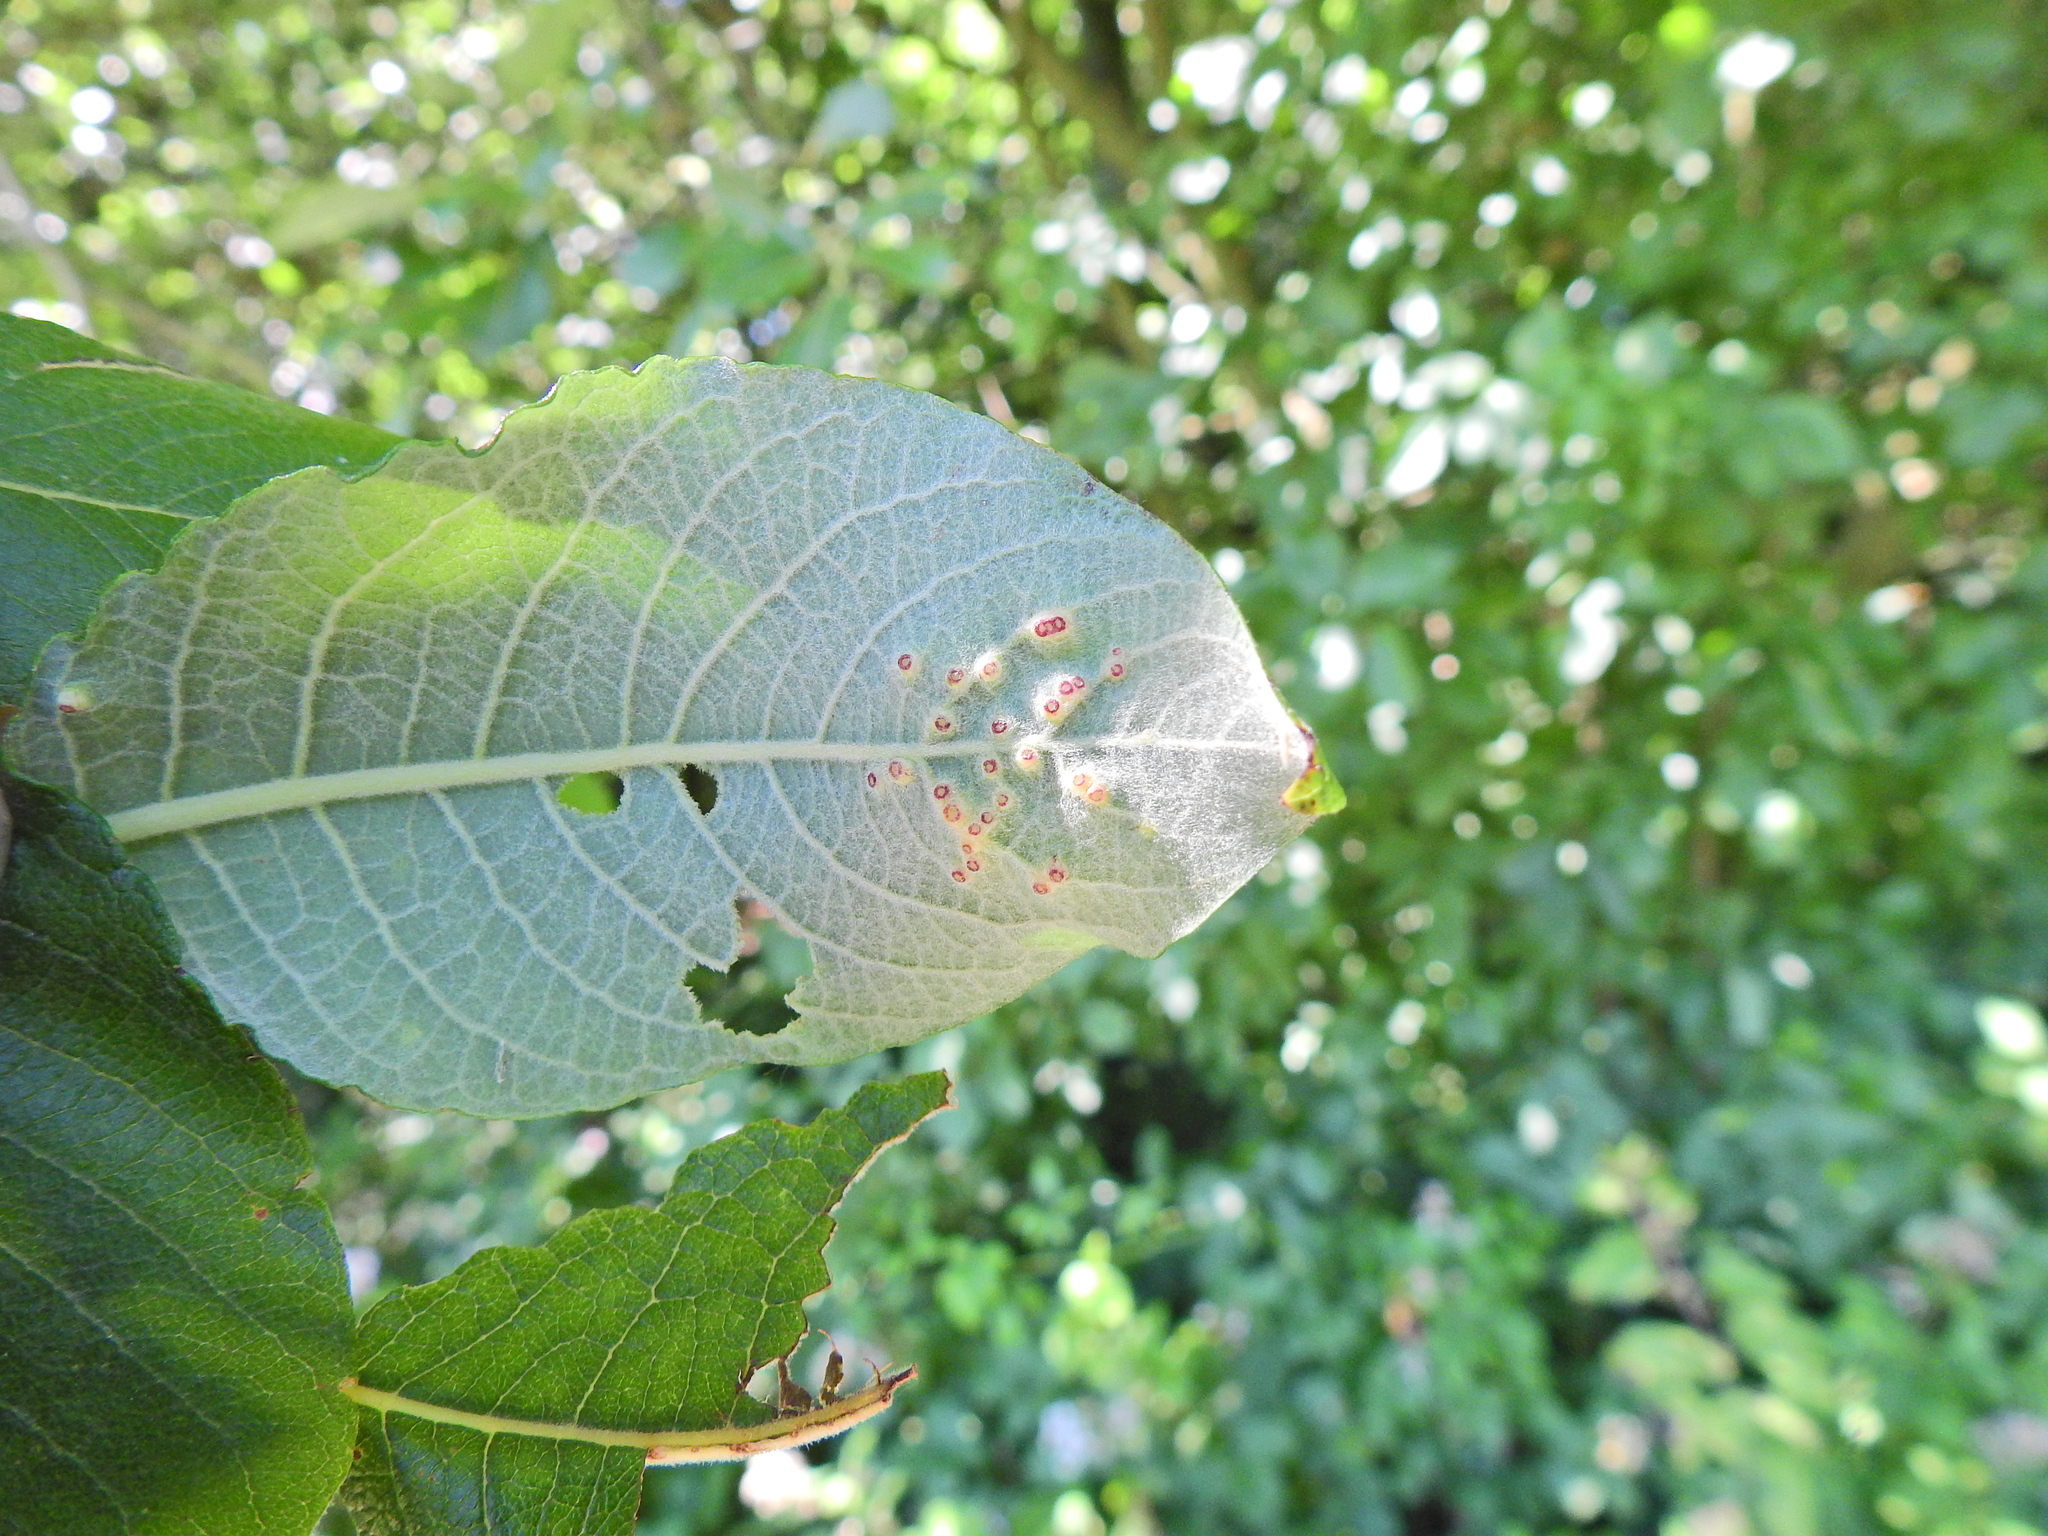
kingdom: Animalia
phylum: Arthropoda
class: Insecta
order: Diptera
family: Cecidomyiidae
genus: Iteomyia
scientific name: Iteomyia capreae
